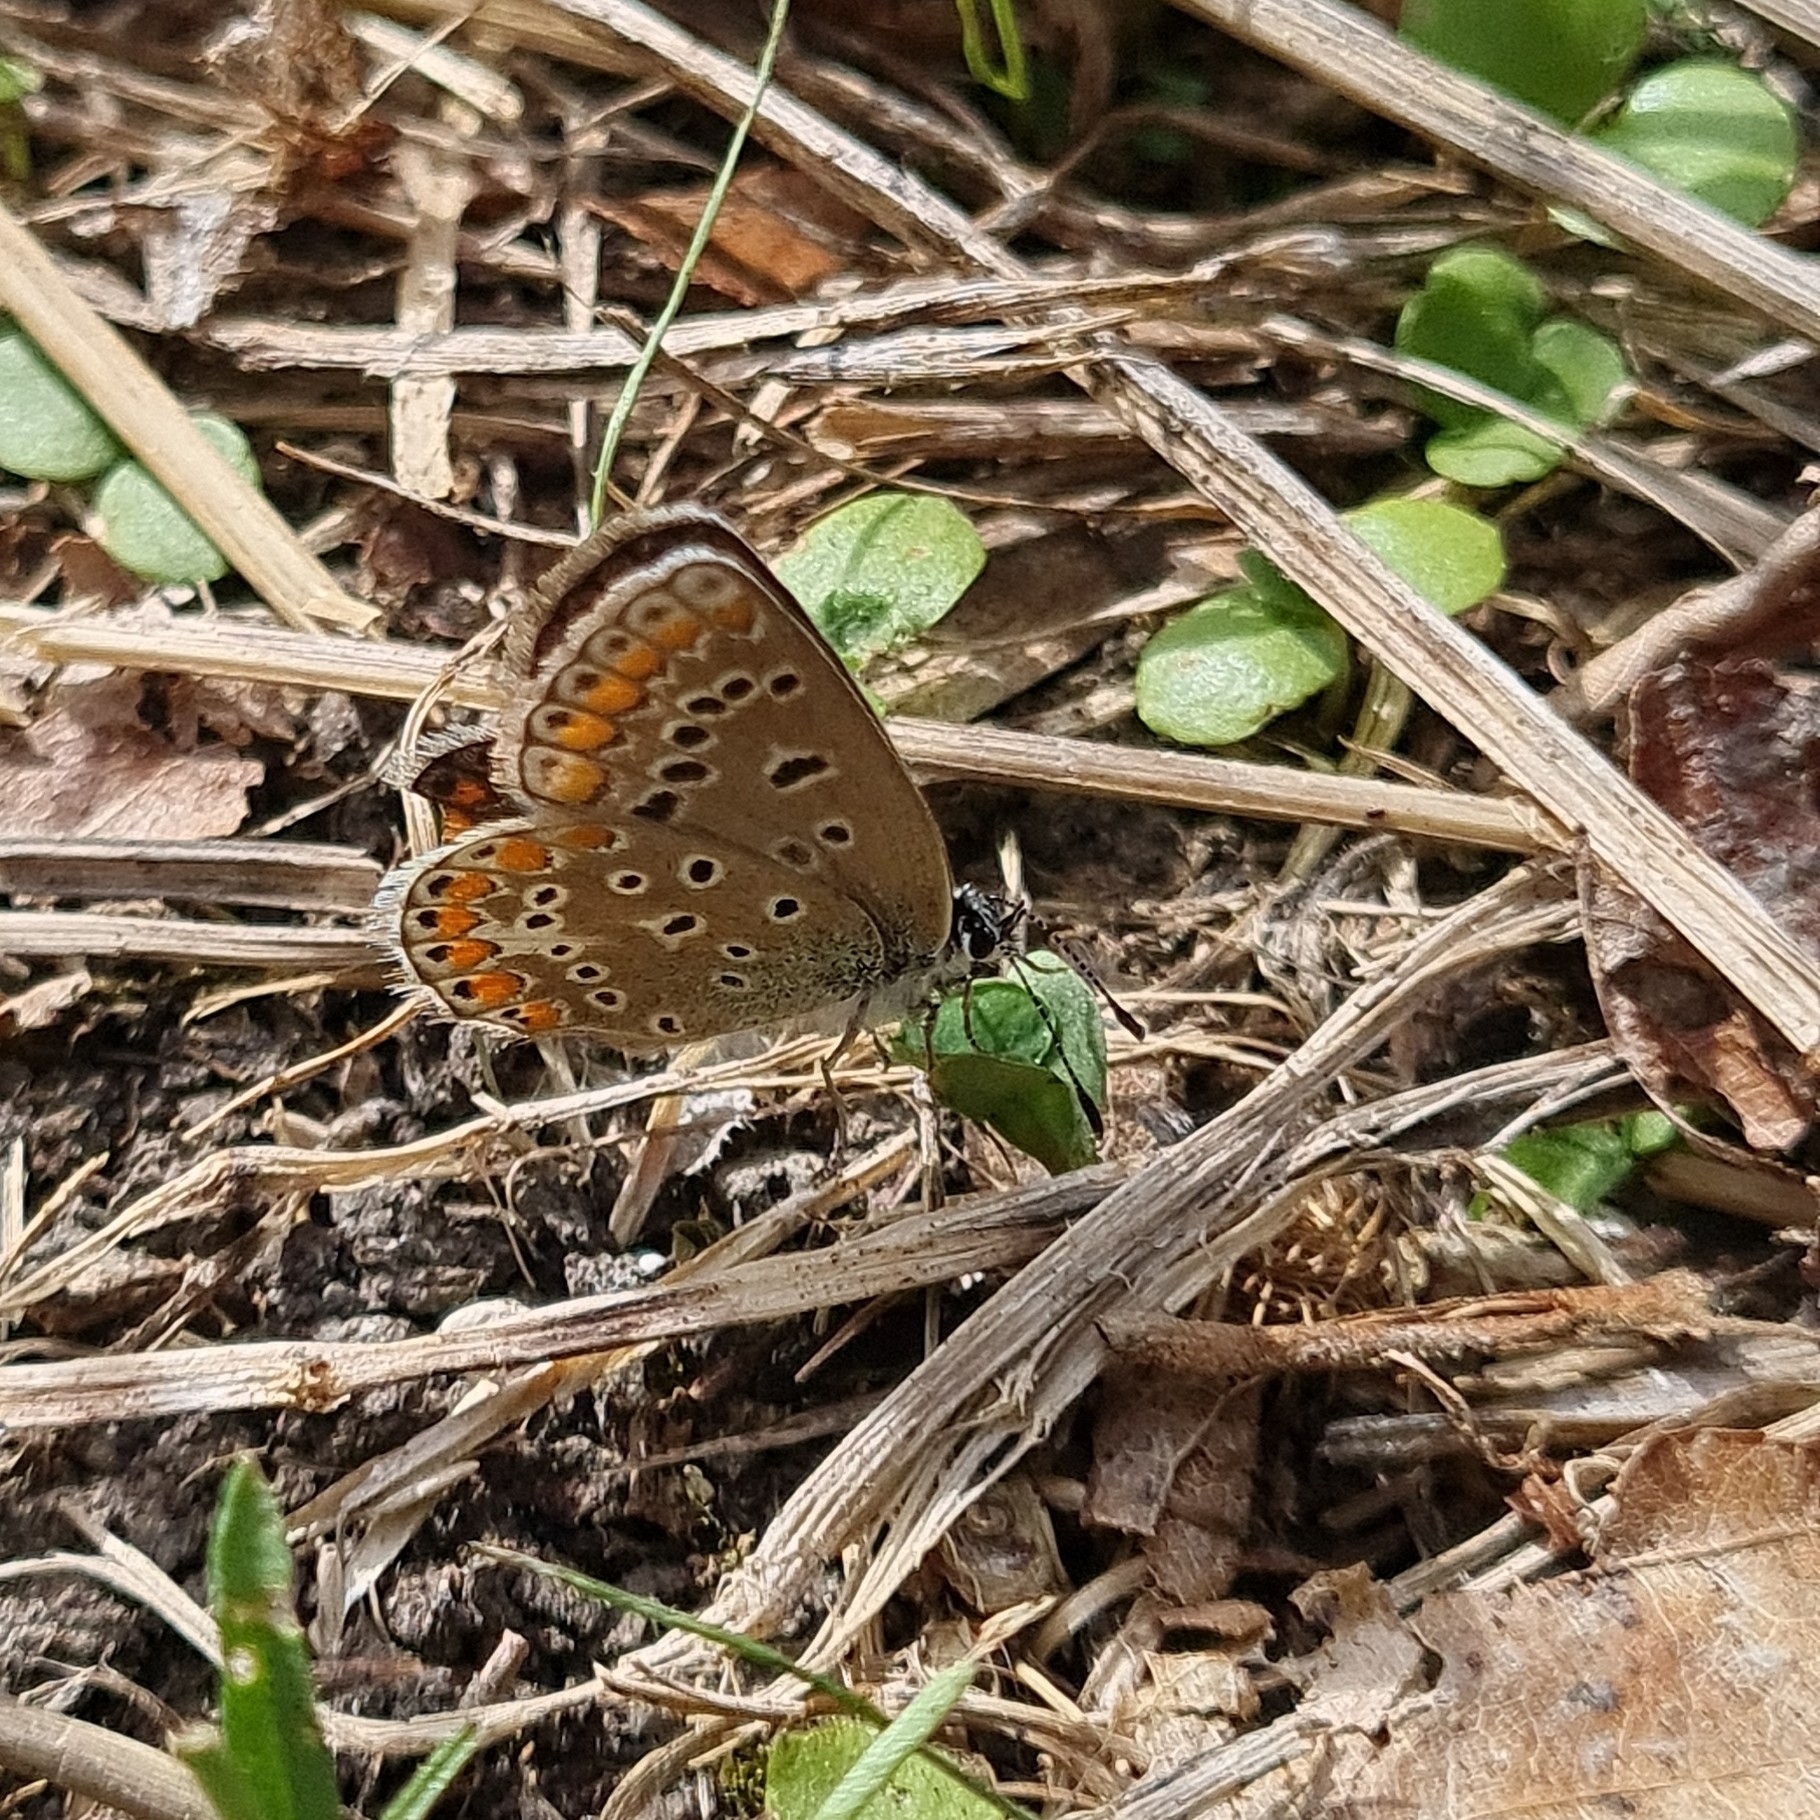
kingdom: Animalia
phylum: Arthropoda
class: Insecta
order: Lepidoptera
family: Lycaenidae
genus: Polyommatus
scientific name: Polyommatus icarus
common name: Common blue
